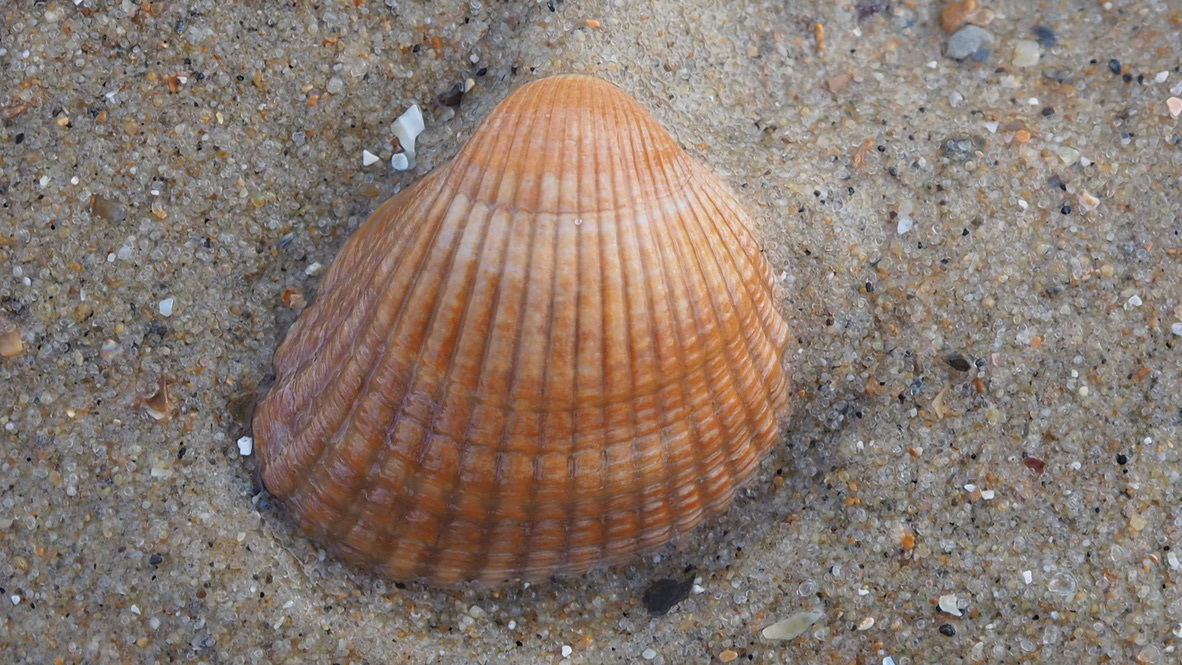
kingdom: Animalia
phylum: Mollusca
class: Bivalvia
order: Cardiida
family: Cardiidae
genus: Cerastoderma
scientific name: Cerastoderma edule
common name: Common cockle
